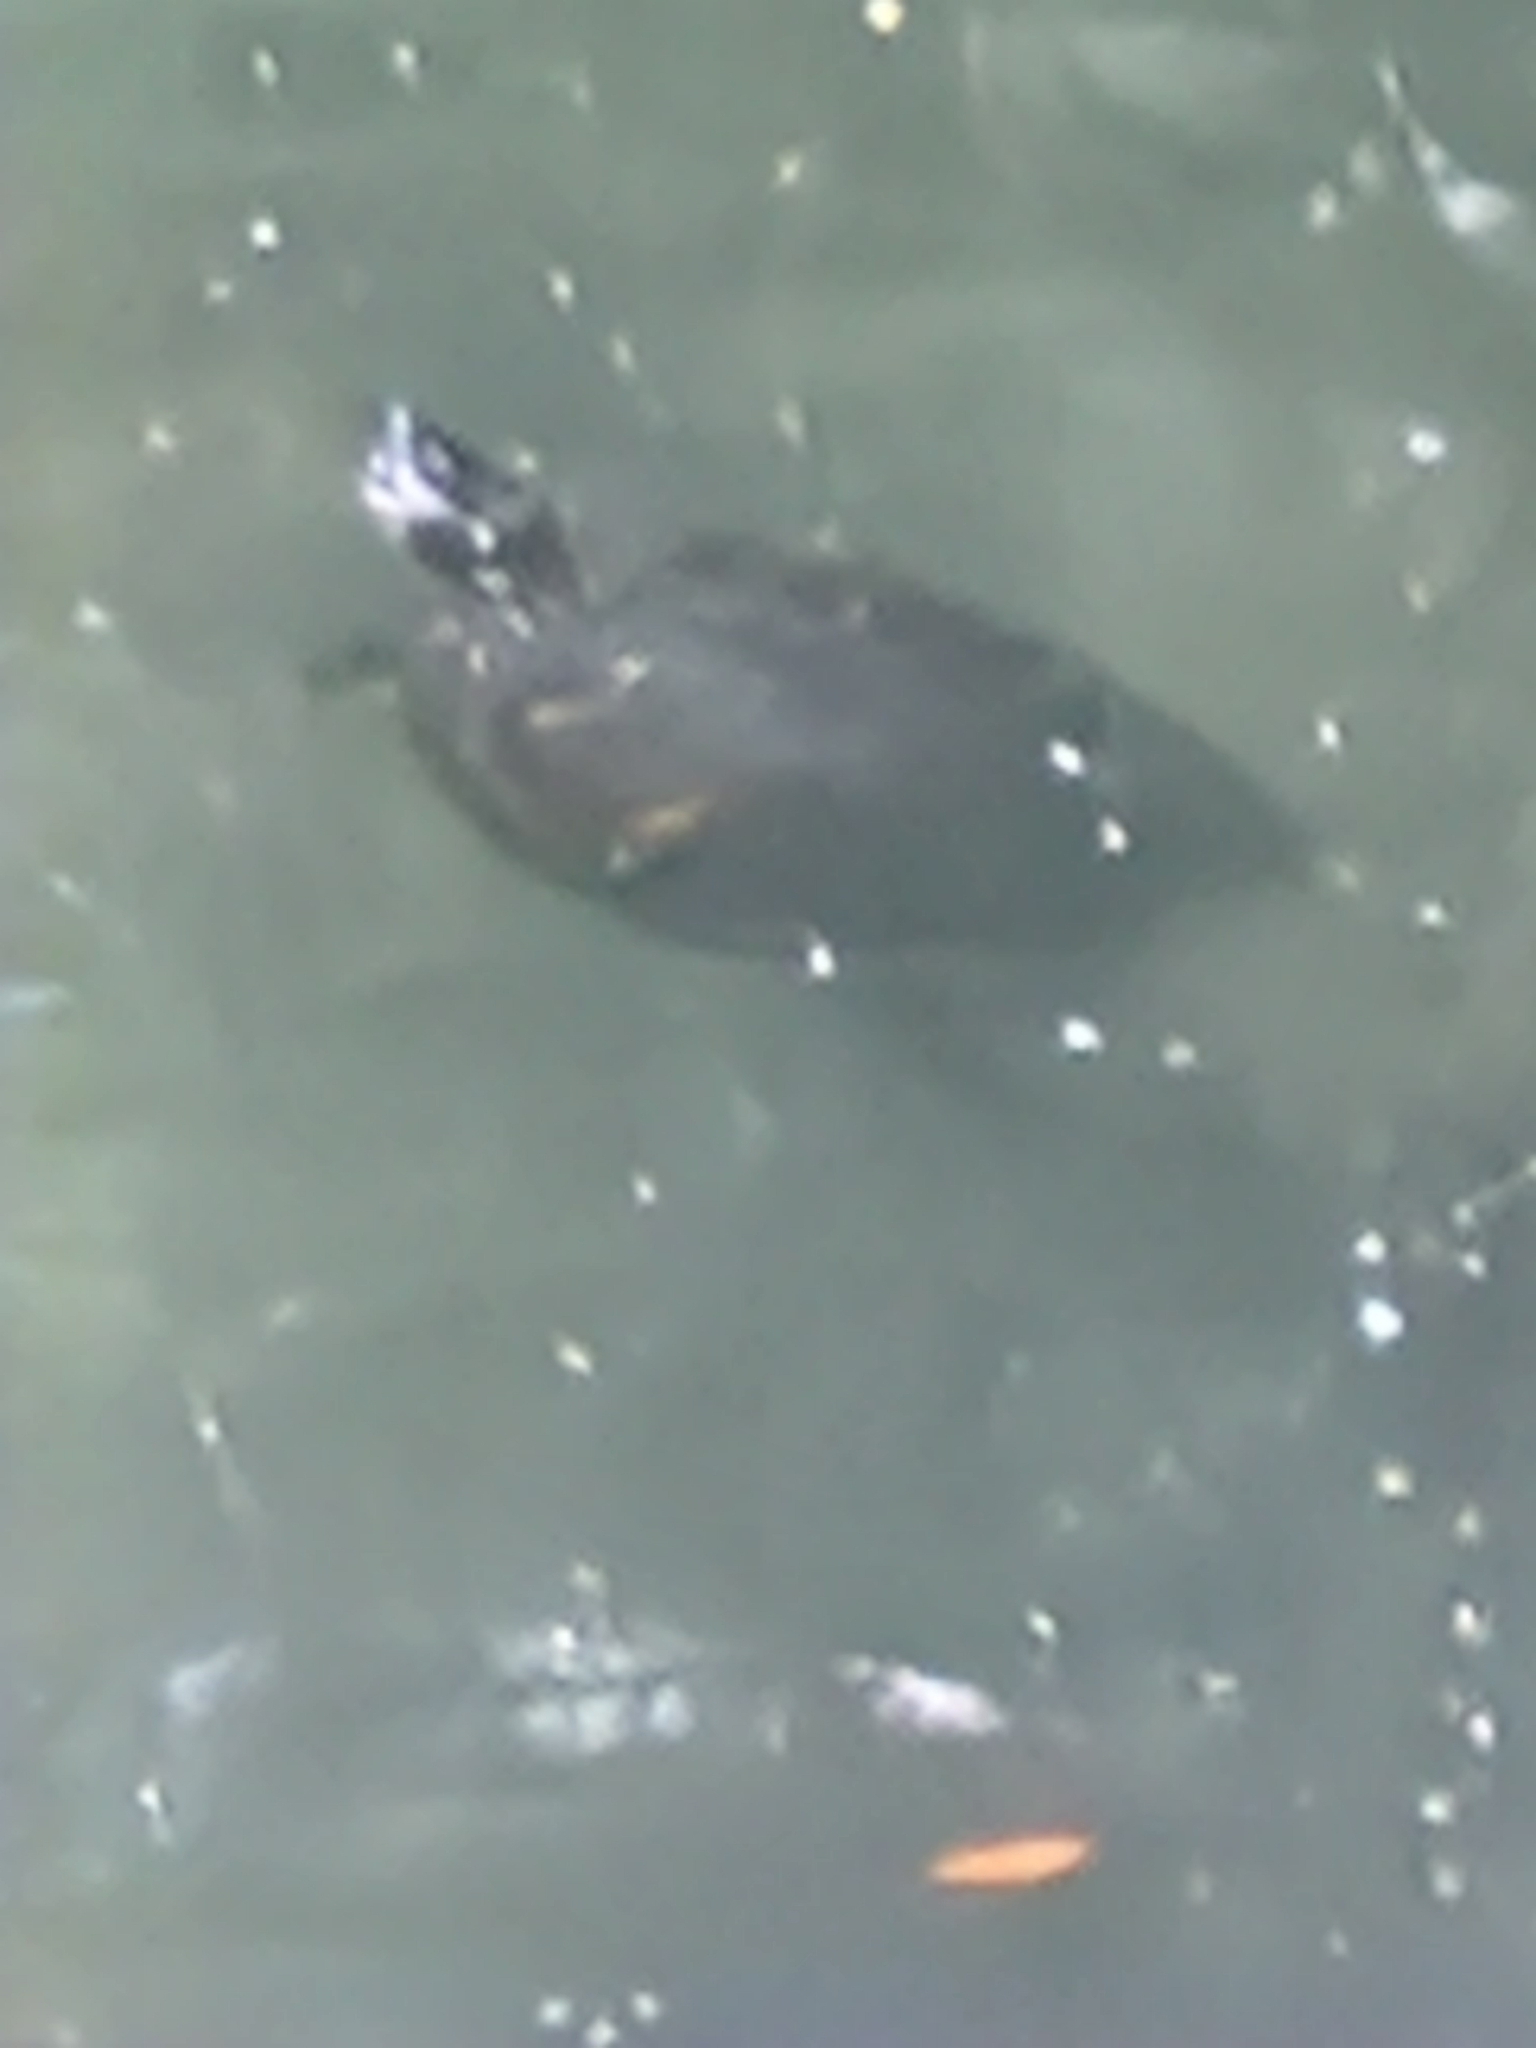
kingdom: Animalia
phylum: Chordata
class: Testudines
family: Emydidae
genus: Trachemys
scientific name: Trachemys scripta
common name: Slider
